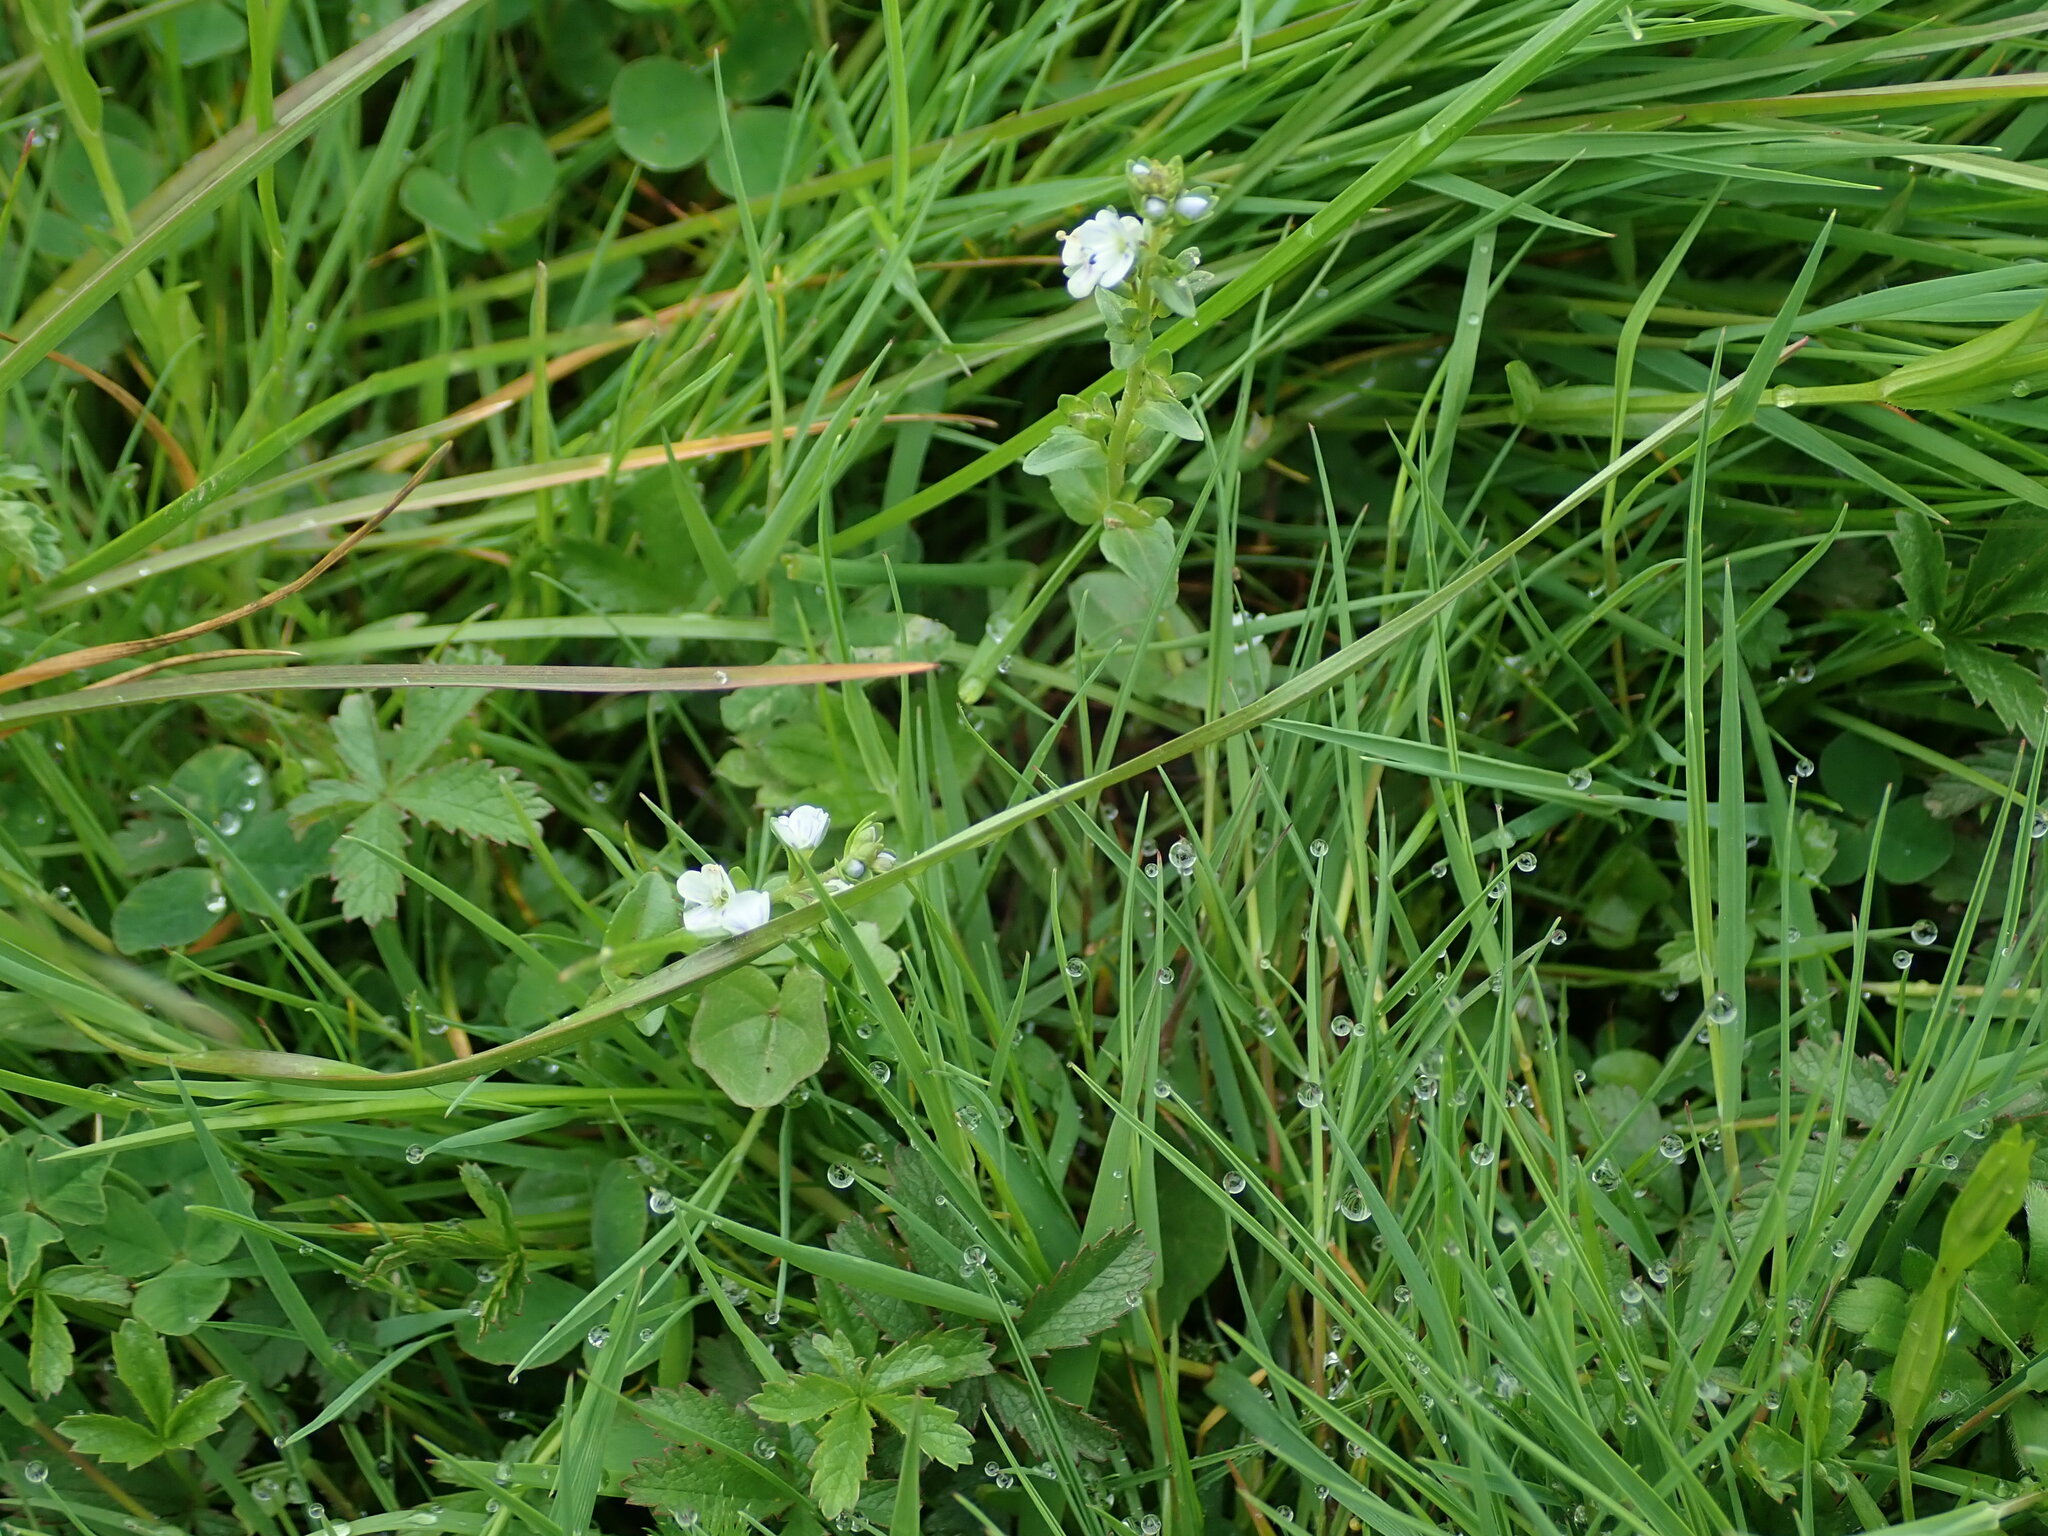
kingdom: Plantae
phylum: Tracheophyta
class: Magnoliopsida
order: Lamiales
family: Plantaginaceae
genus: Veronica
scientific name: Veronica serpyllifolia
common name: Thyme-leaved speedwell
